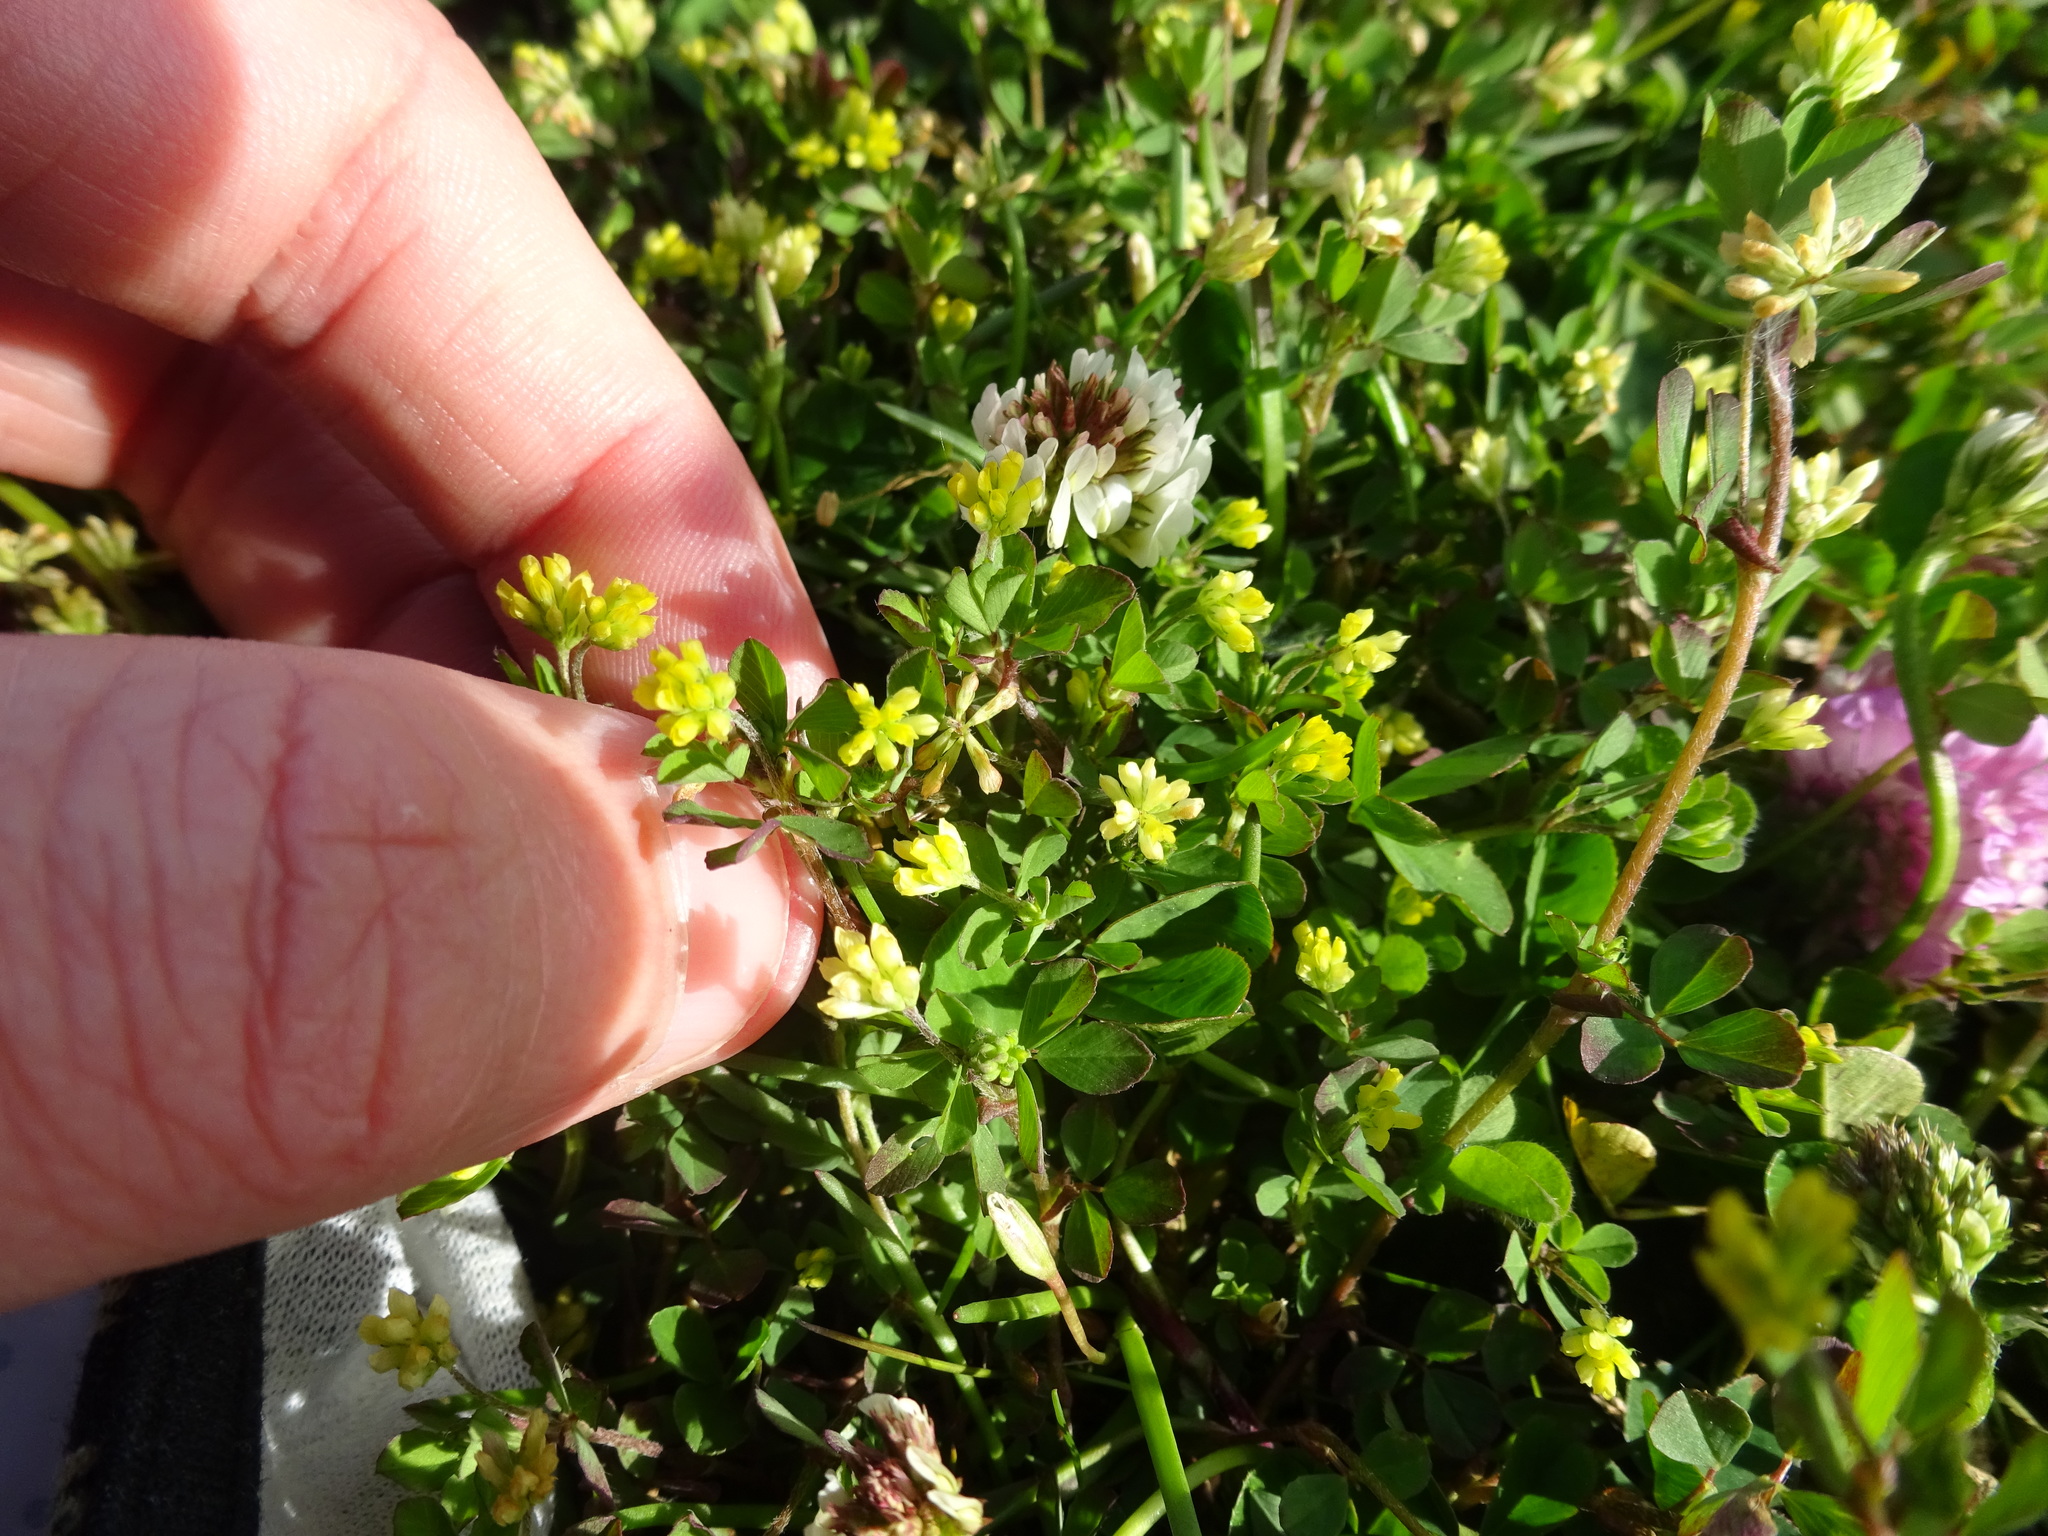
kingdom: Plantae
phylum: Tracheophyta
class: Magnoliopsida
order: Fabales
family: Fabaceae
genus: Trifolium
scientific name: Trifolium dubium
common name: Suckling clover
